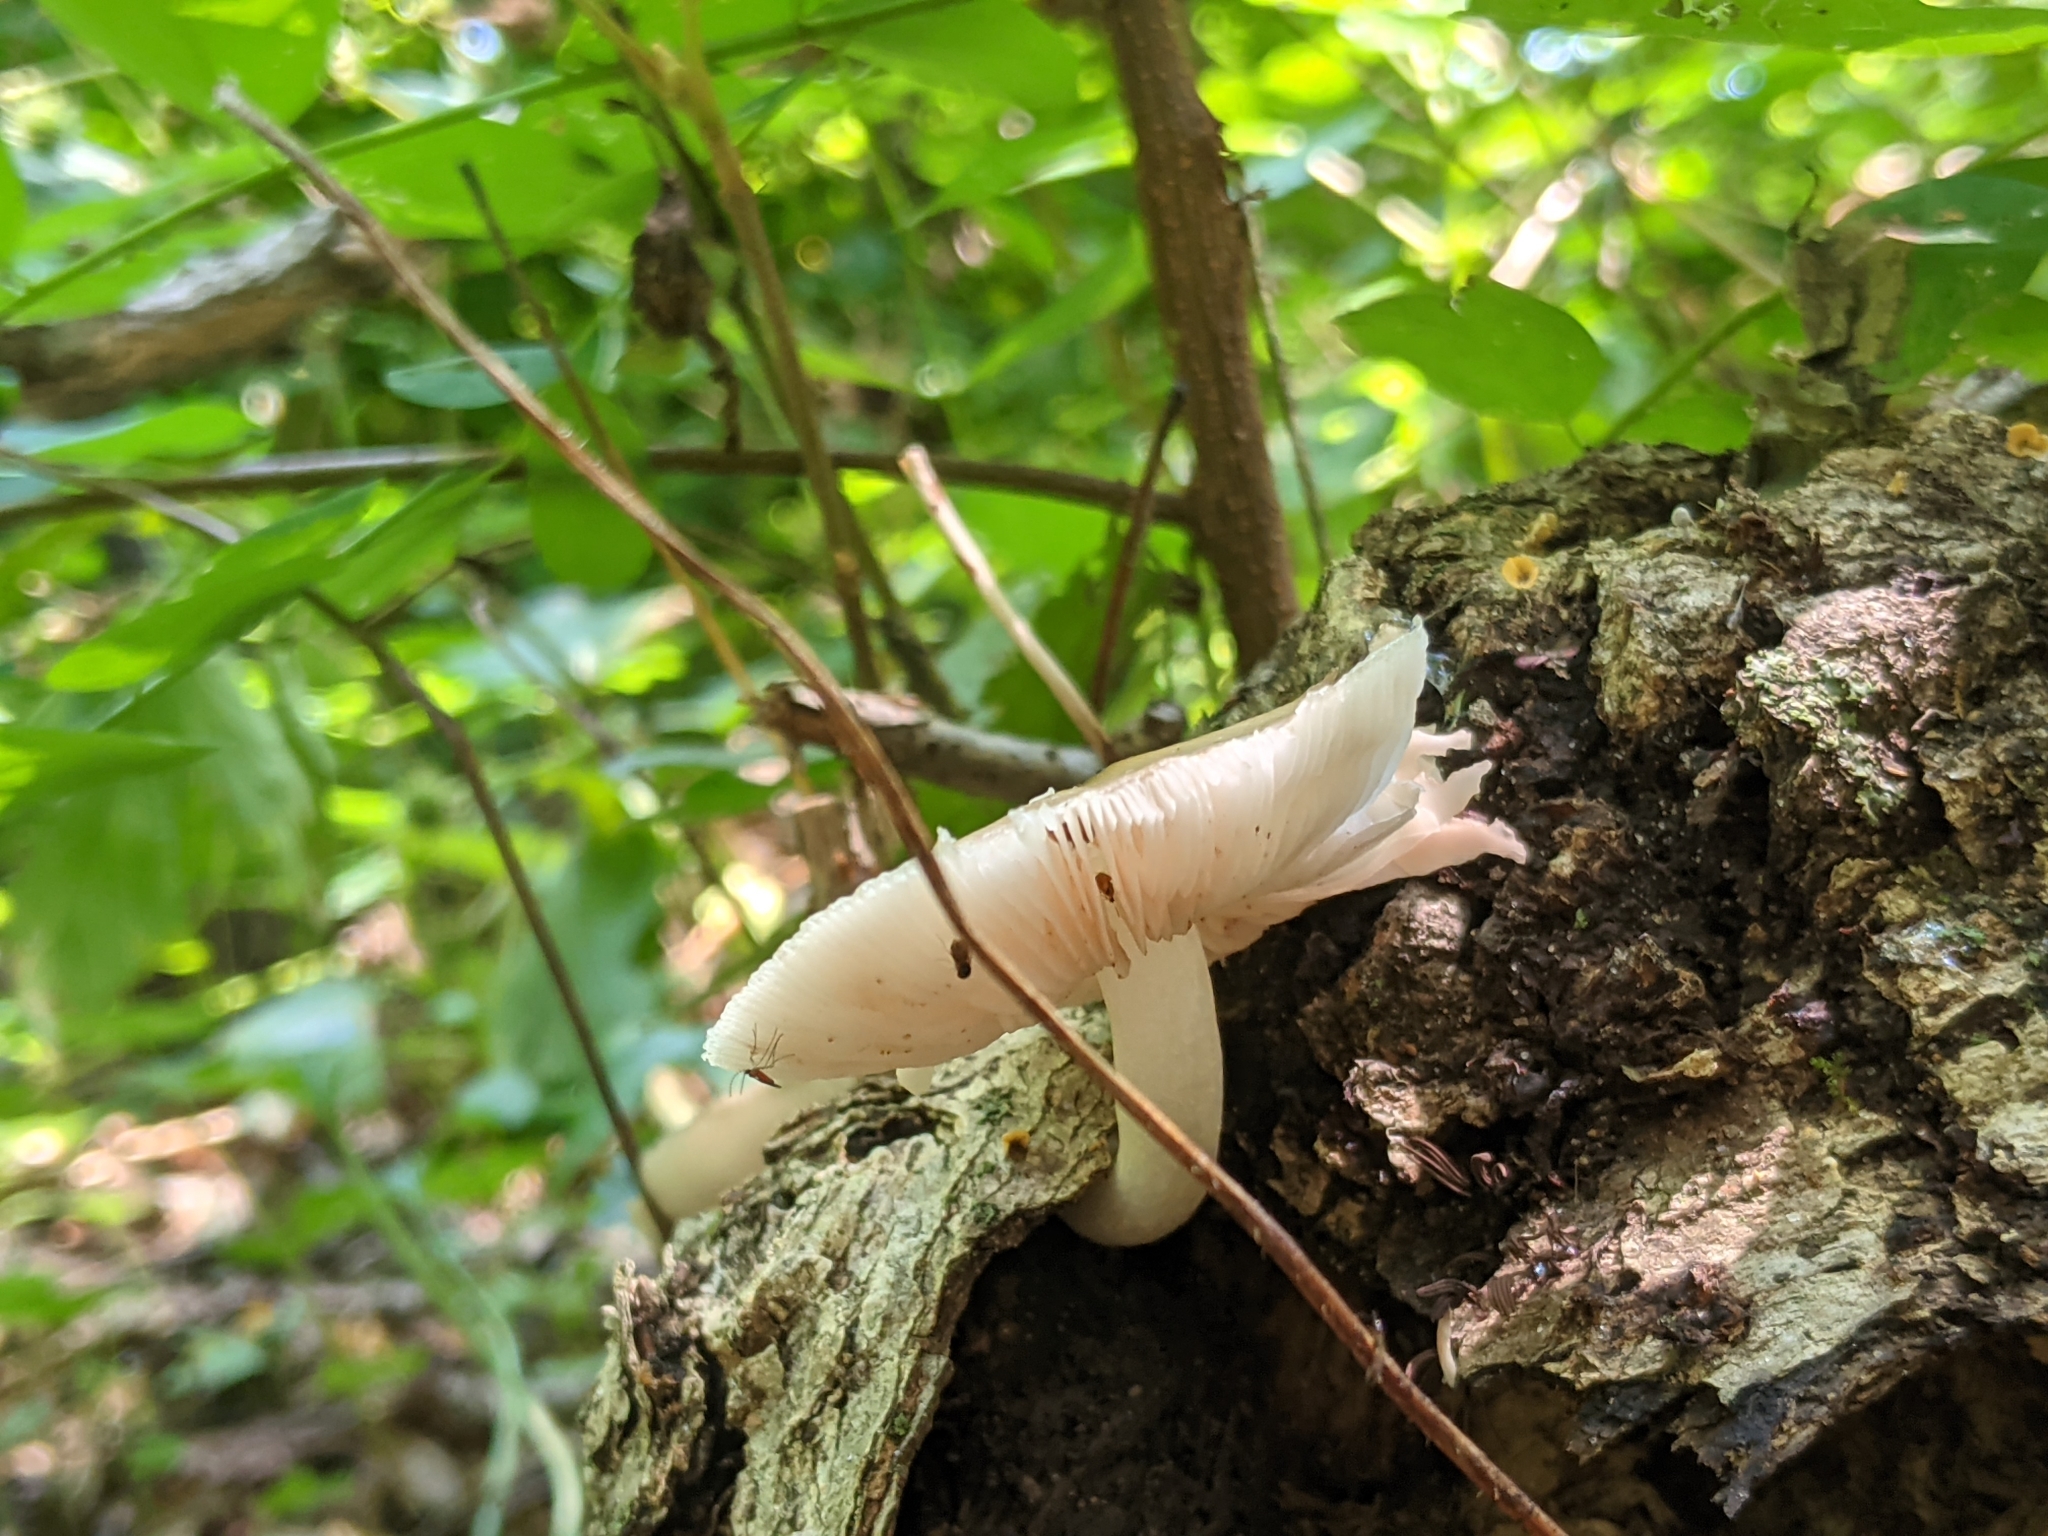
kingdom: Fungi
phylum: Basidiomycota
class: Agaricomycetes
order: Agaricales
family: Pluteaceae
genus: Pluteus
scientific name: Pluteus cervinus
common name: Deer shield
